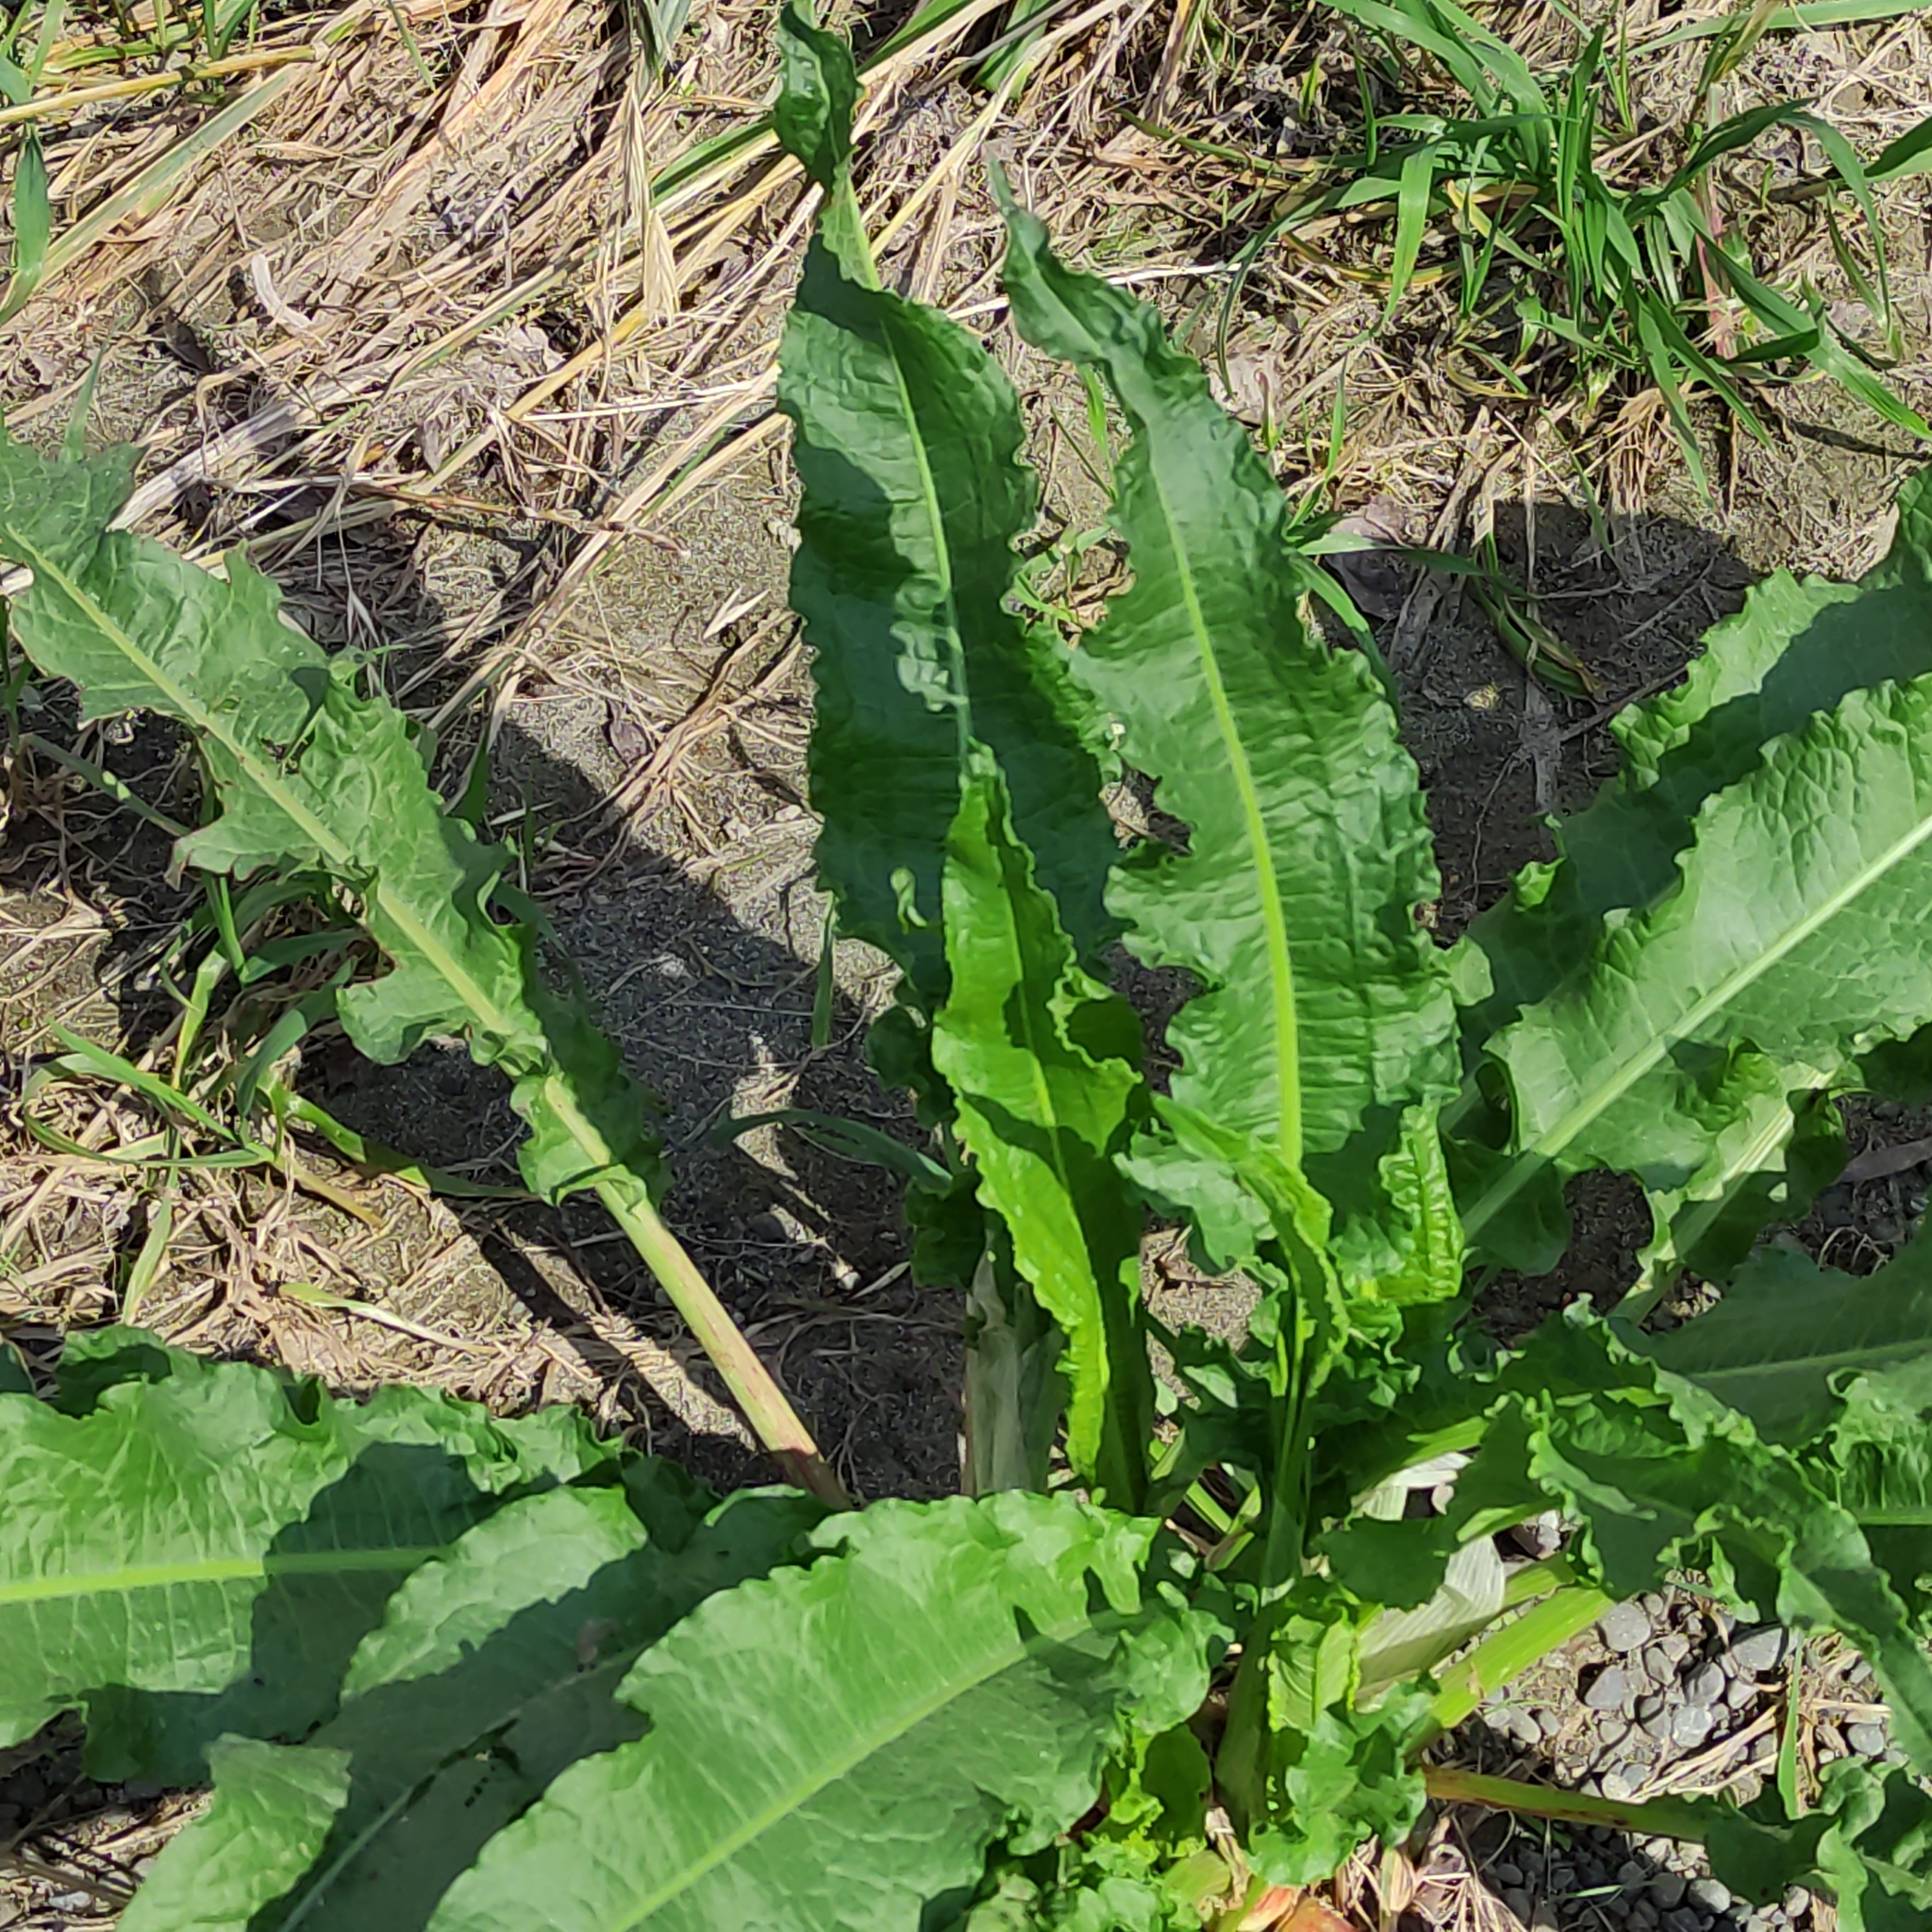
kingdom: Plantae
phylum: Tracheophyta
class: Magnoliopsida
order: Caryophyllales
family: Polygonaceae
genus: Rumex
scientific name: Rumex crispus
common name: Curled dock
